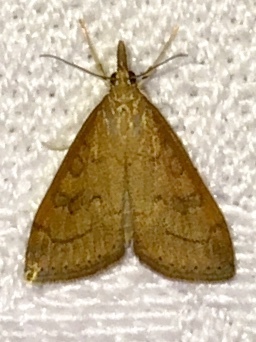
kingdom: Animalia
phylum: Arthropoda
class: Insecta
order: Lepidoptera
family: Crambidae
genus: Udea
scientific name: Udea rubigalis
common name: Celery leaftier moth
